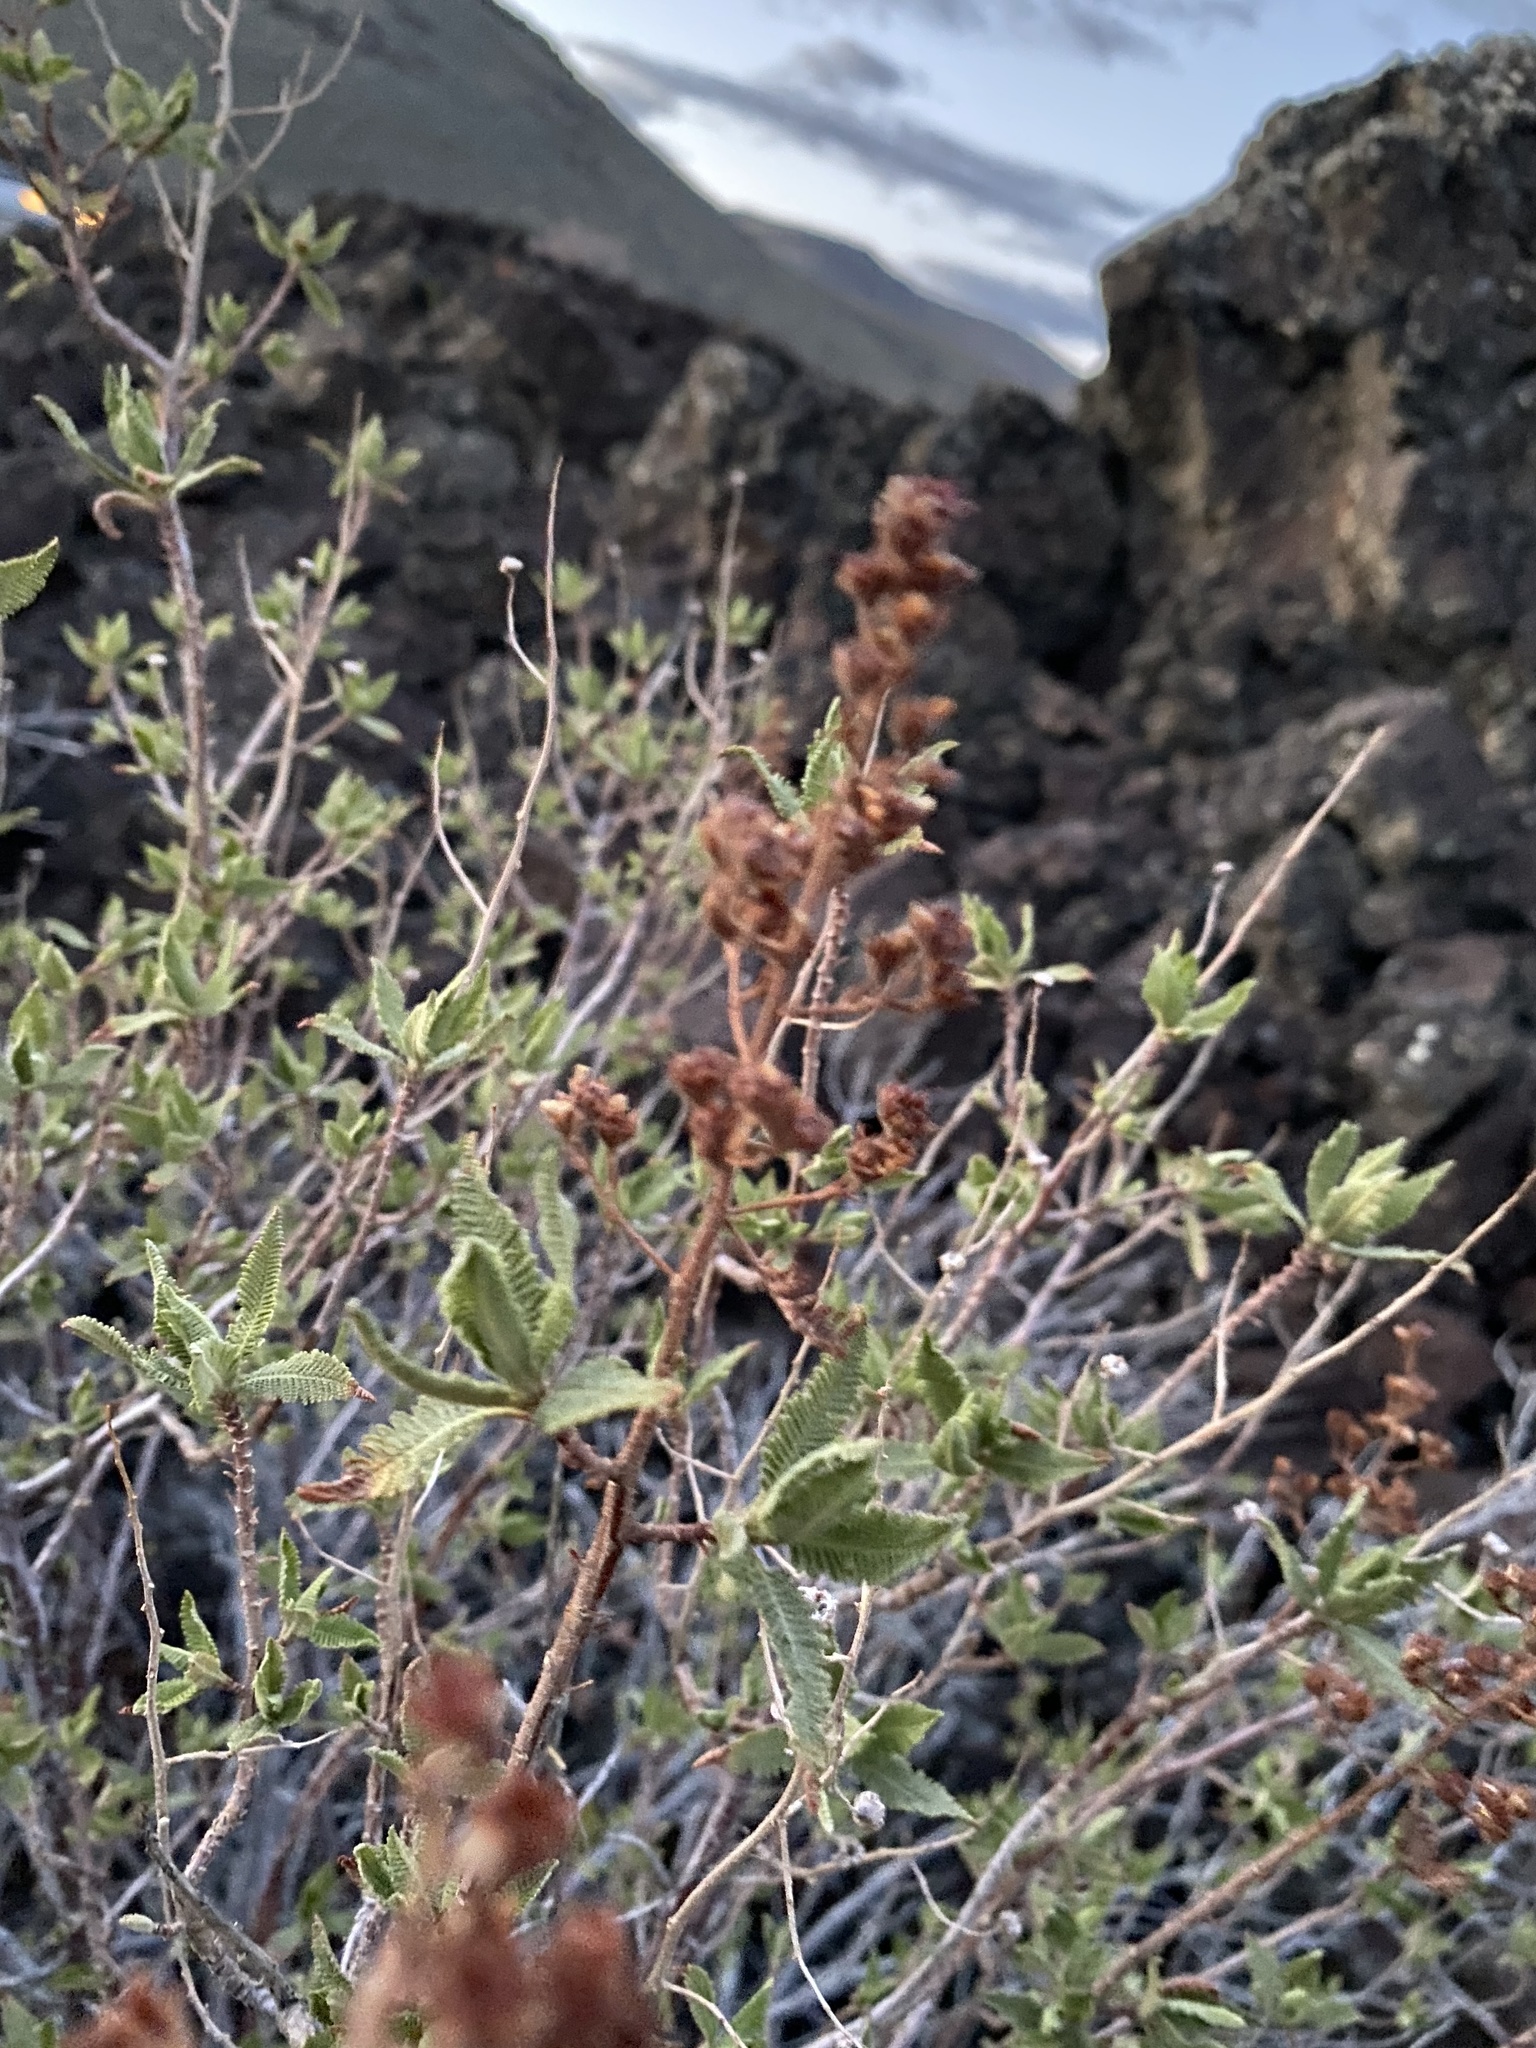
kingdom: Plantae
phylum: Tracheophyta
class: Magnoliopsida
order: Rosales
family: Rosaceae
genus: Chamaebatiaria
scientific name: Chamaebatiaria millefolium
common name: Fernbush
